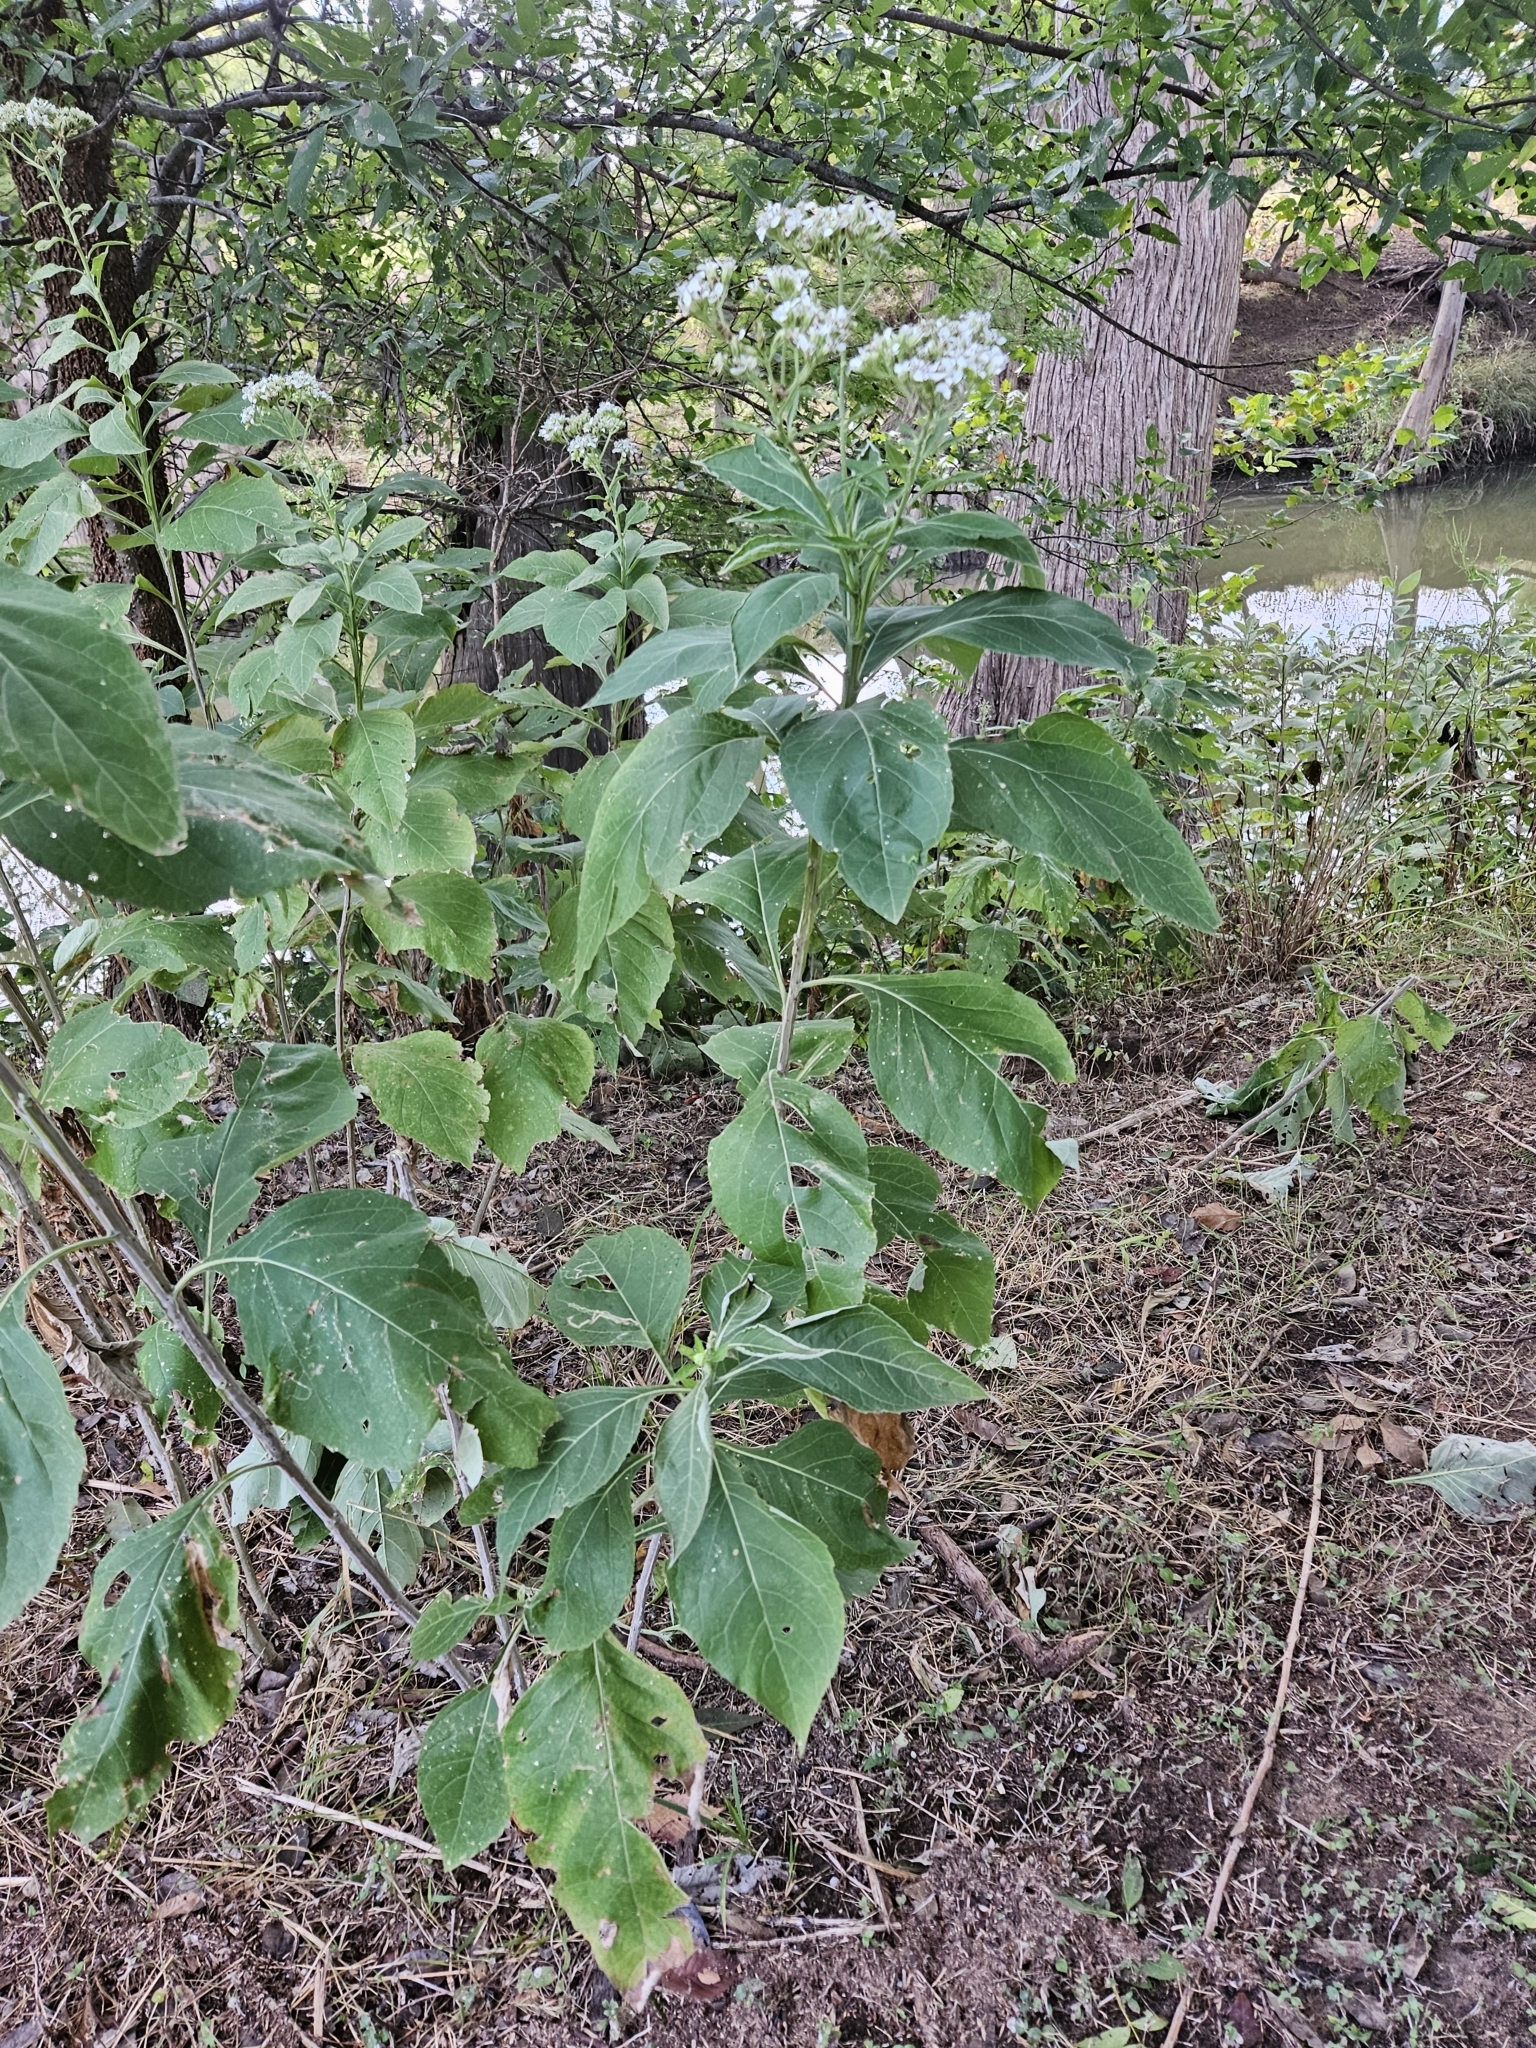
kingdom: Plantae
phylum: Tracheophyta
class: Magnoliopsida
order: Asterales
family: Asteraceae
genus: Verbesina
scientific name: Verbesina virginica
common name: Frostweed
